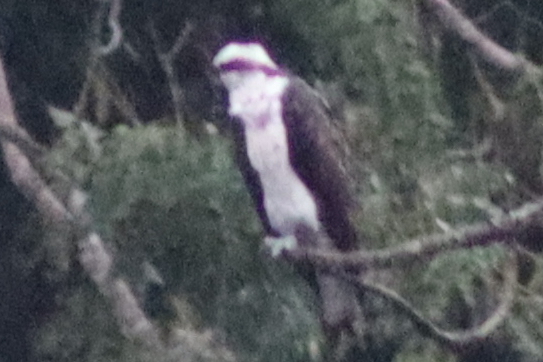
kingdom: Animalia
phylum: Chordata
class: Aves
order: Accipitriformes
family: Pandionidae
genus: Pandion
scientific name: Pandion haliaetus
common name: Osprey
